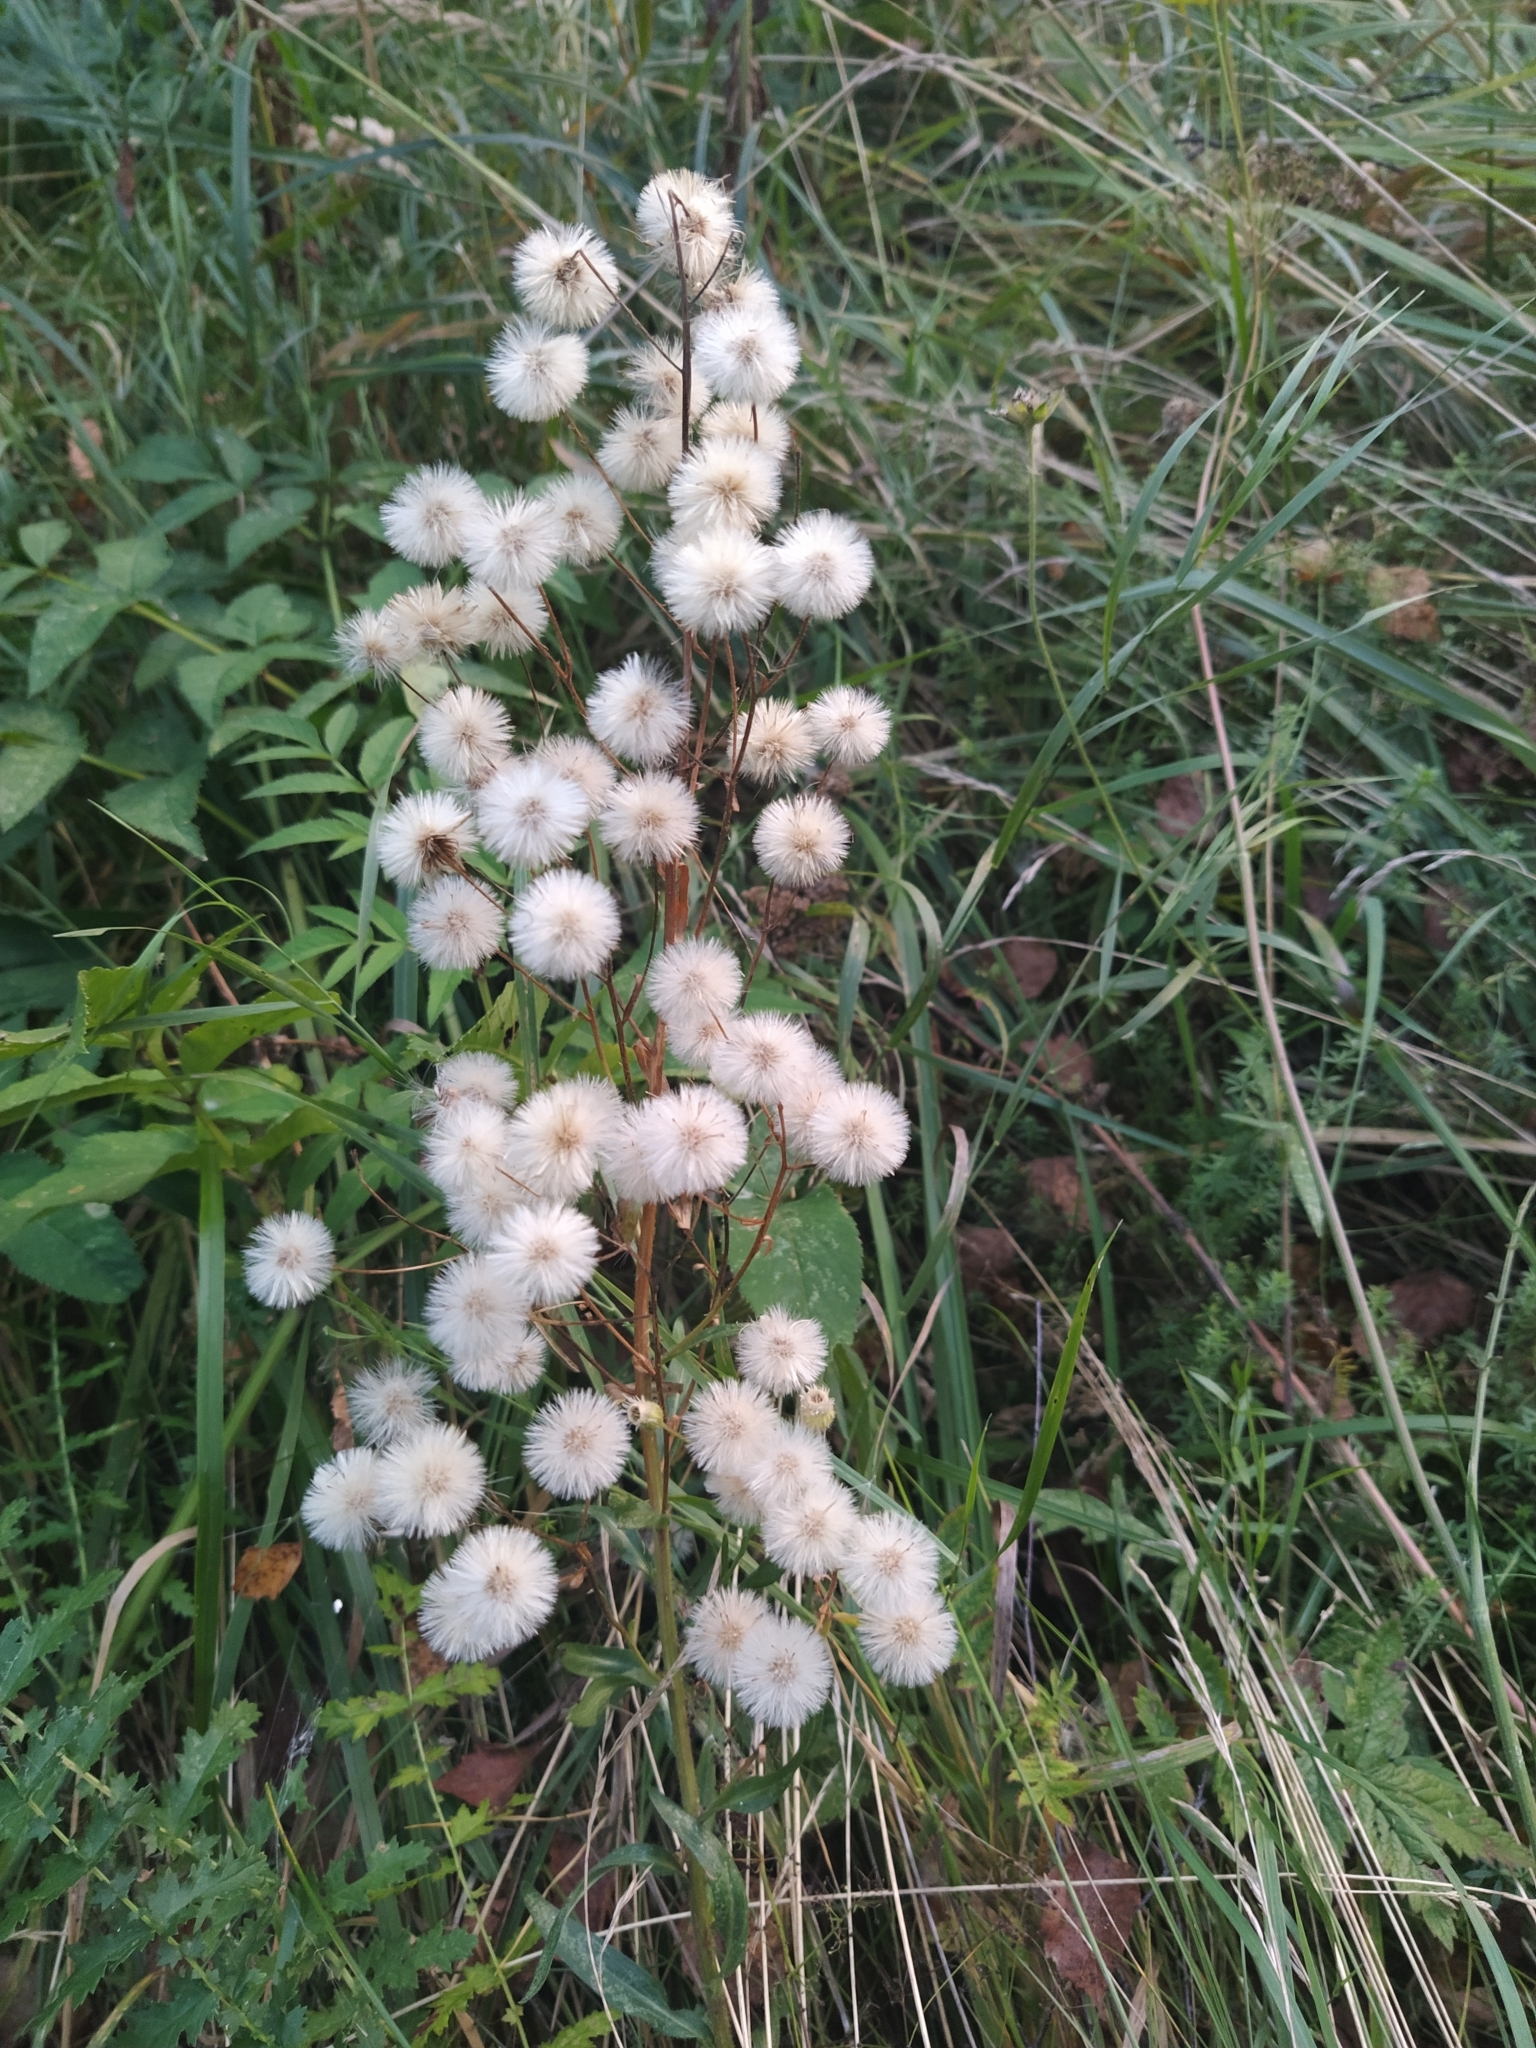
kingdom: Plantae
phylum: Tracheophyta
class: Magnoliopsida
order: Asterales
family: Asteraceae
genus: Erigeron
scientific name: Erigeron
